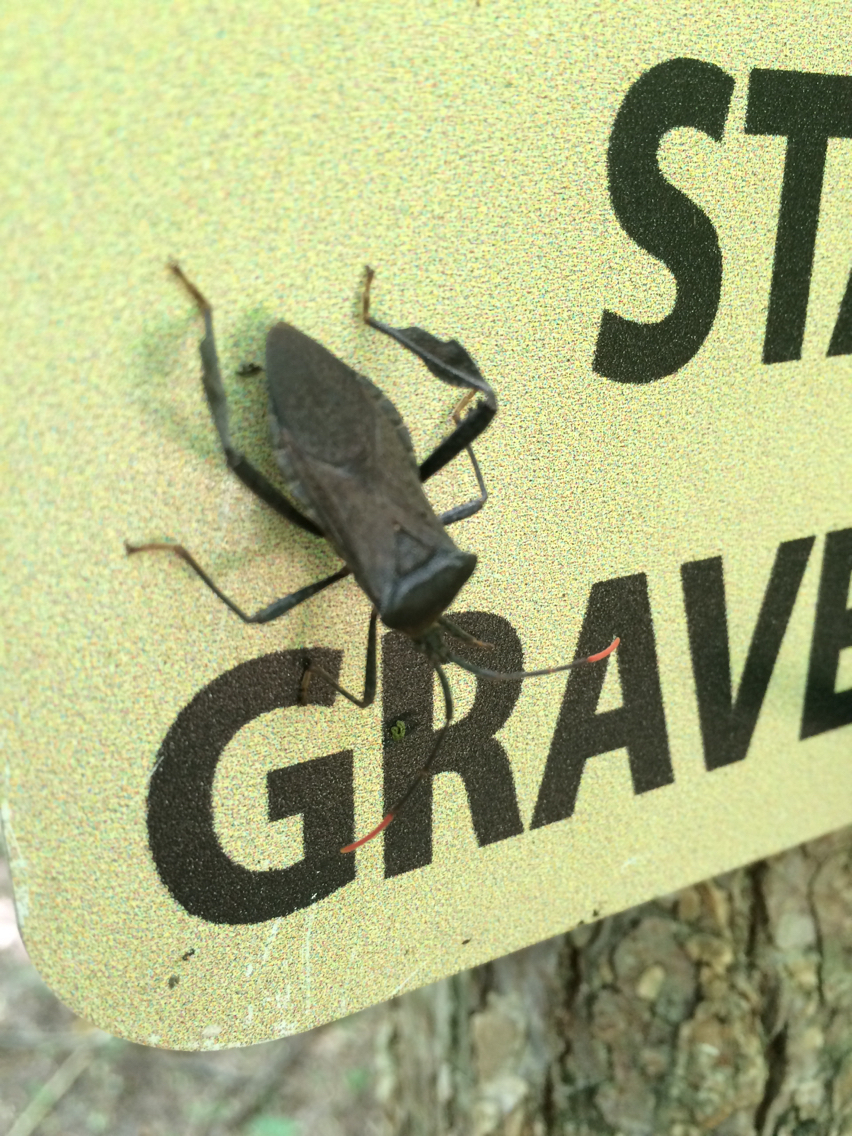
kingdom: Animalia
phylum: Arthropoda
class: Insecta
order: Hemiptera
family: Coreidae
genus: Acanthocephala
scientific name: Acanthocephala terminalis
